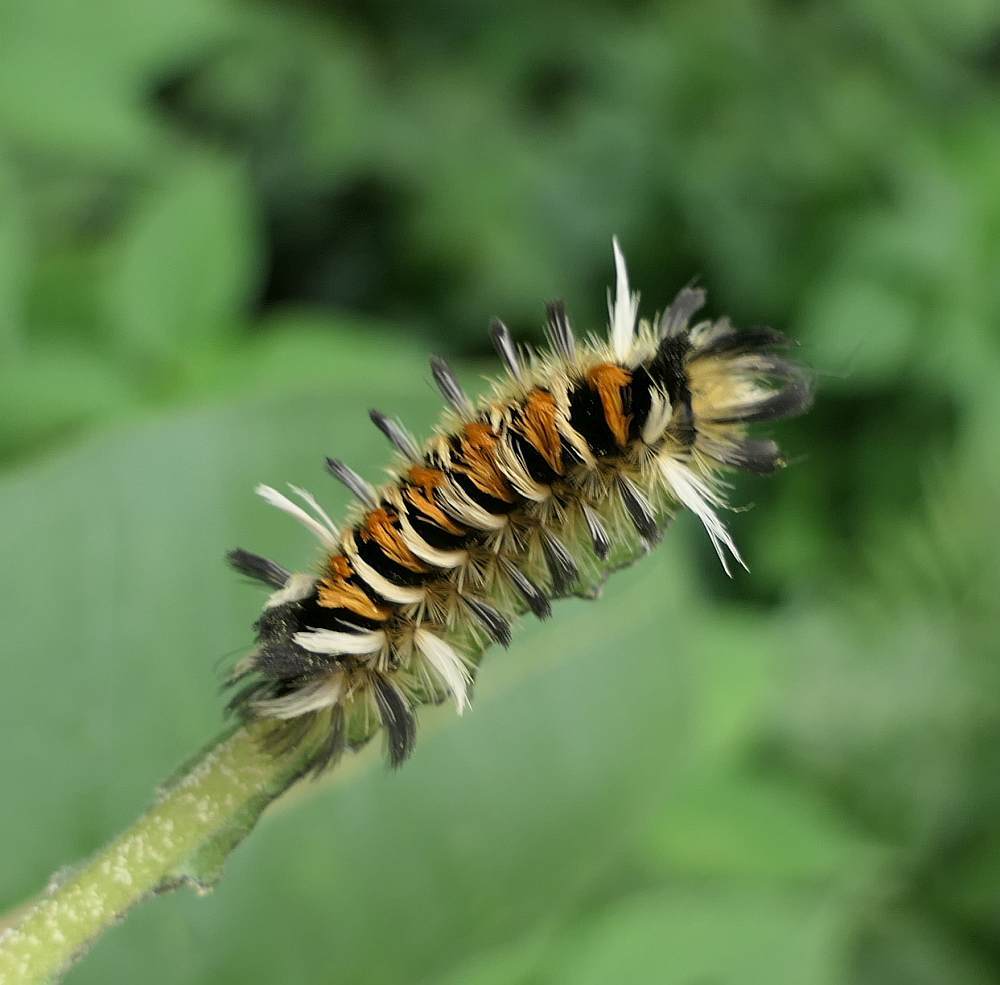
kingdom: Animalia
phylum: Arthropoda
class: Insecta
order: Lepidoptera
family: Erebidae
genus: Euchaetes
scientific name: Euchaetes egle
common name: Milkweed tussock moth
